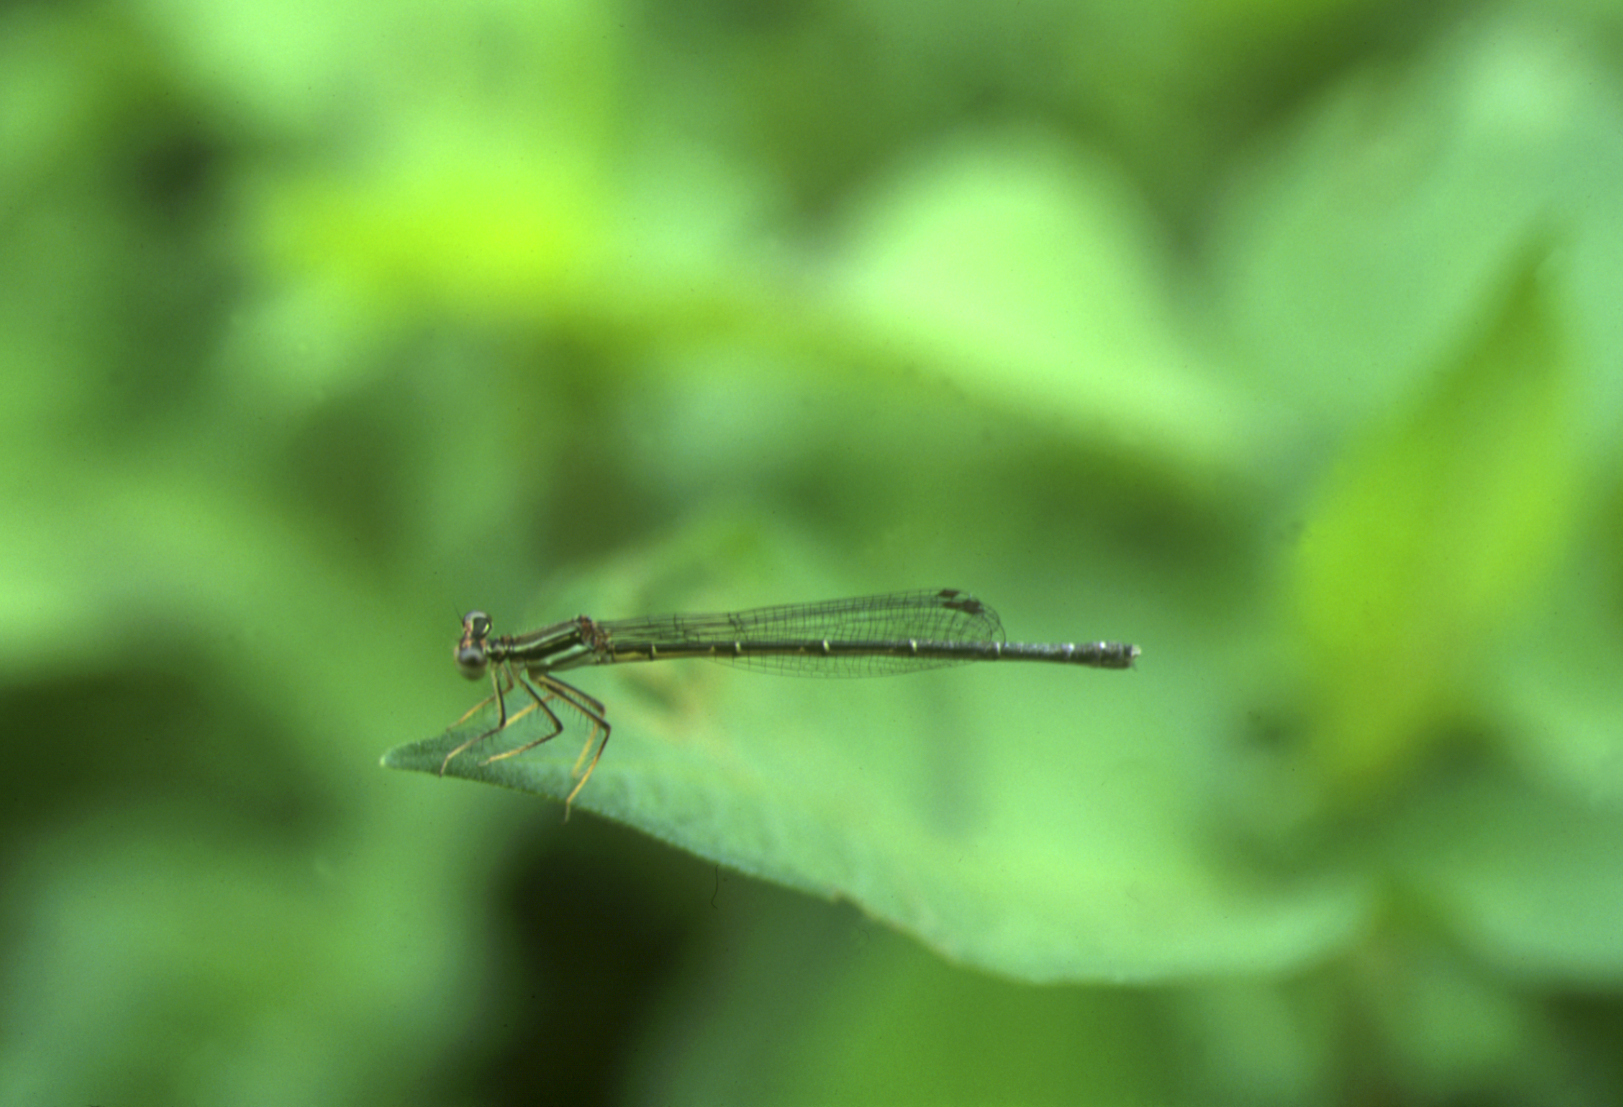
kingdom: Animalia
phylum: Arthropoda
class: Insecta
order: Odonata
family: Platycnemididae
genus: Platycnemis
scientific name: Platycnemis phyllopoda
